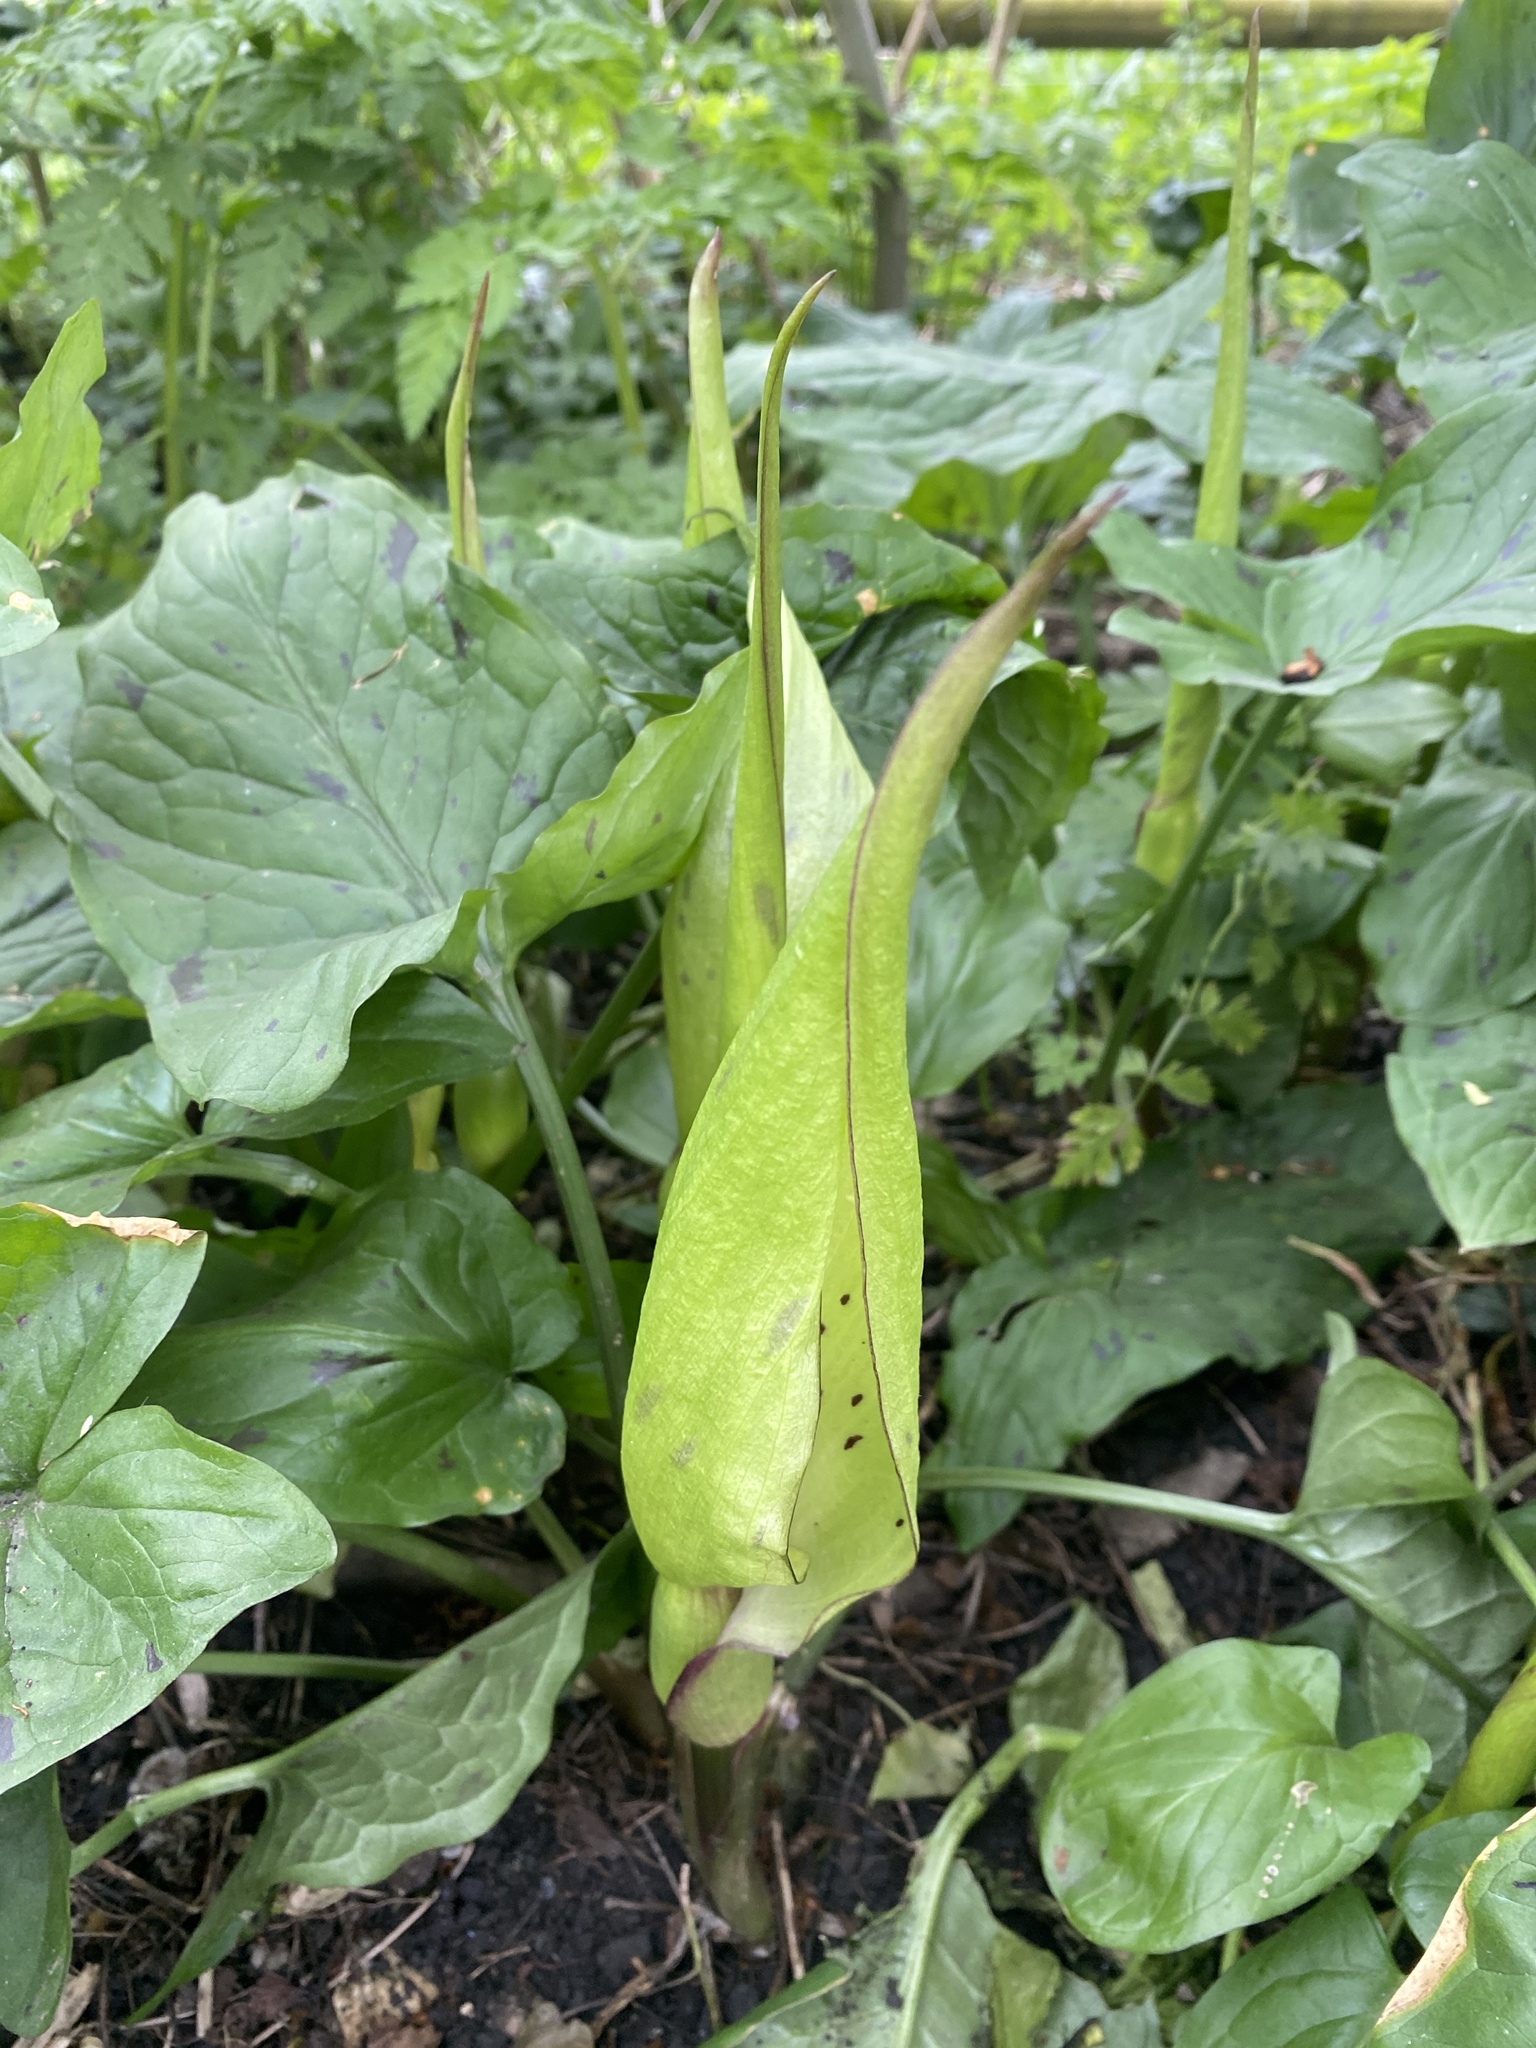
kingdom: Plantae
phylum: Tracheophyta
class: Liliopsida
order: Alismatales
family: Araceae
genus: Arum
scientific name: Arum maculatum
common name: Lords-and-ladies
